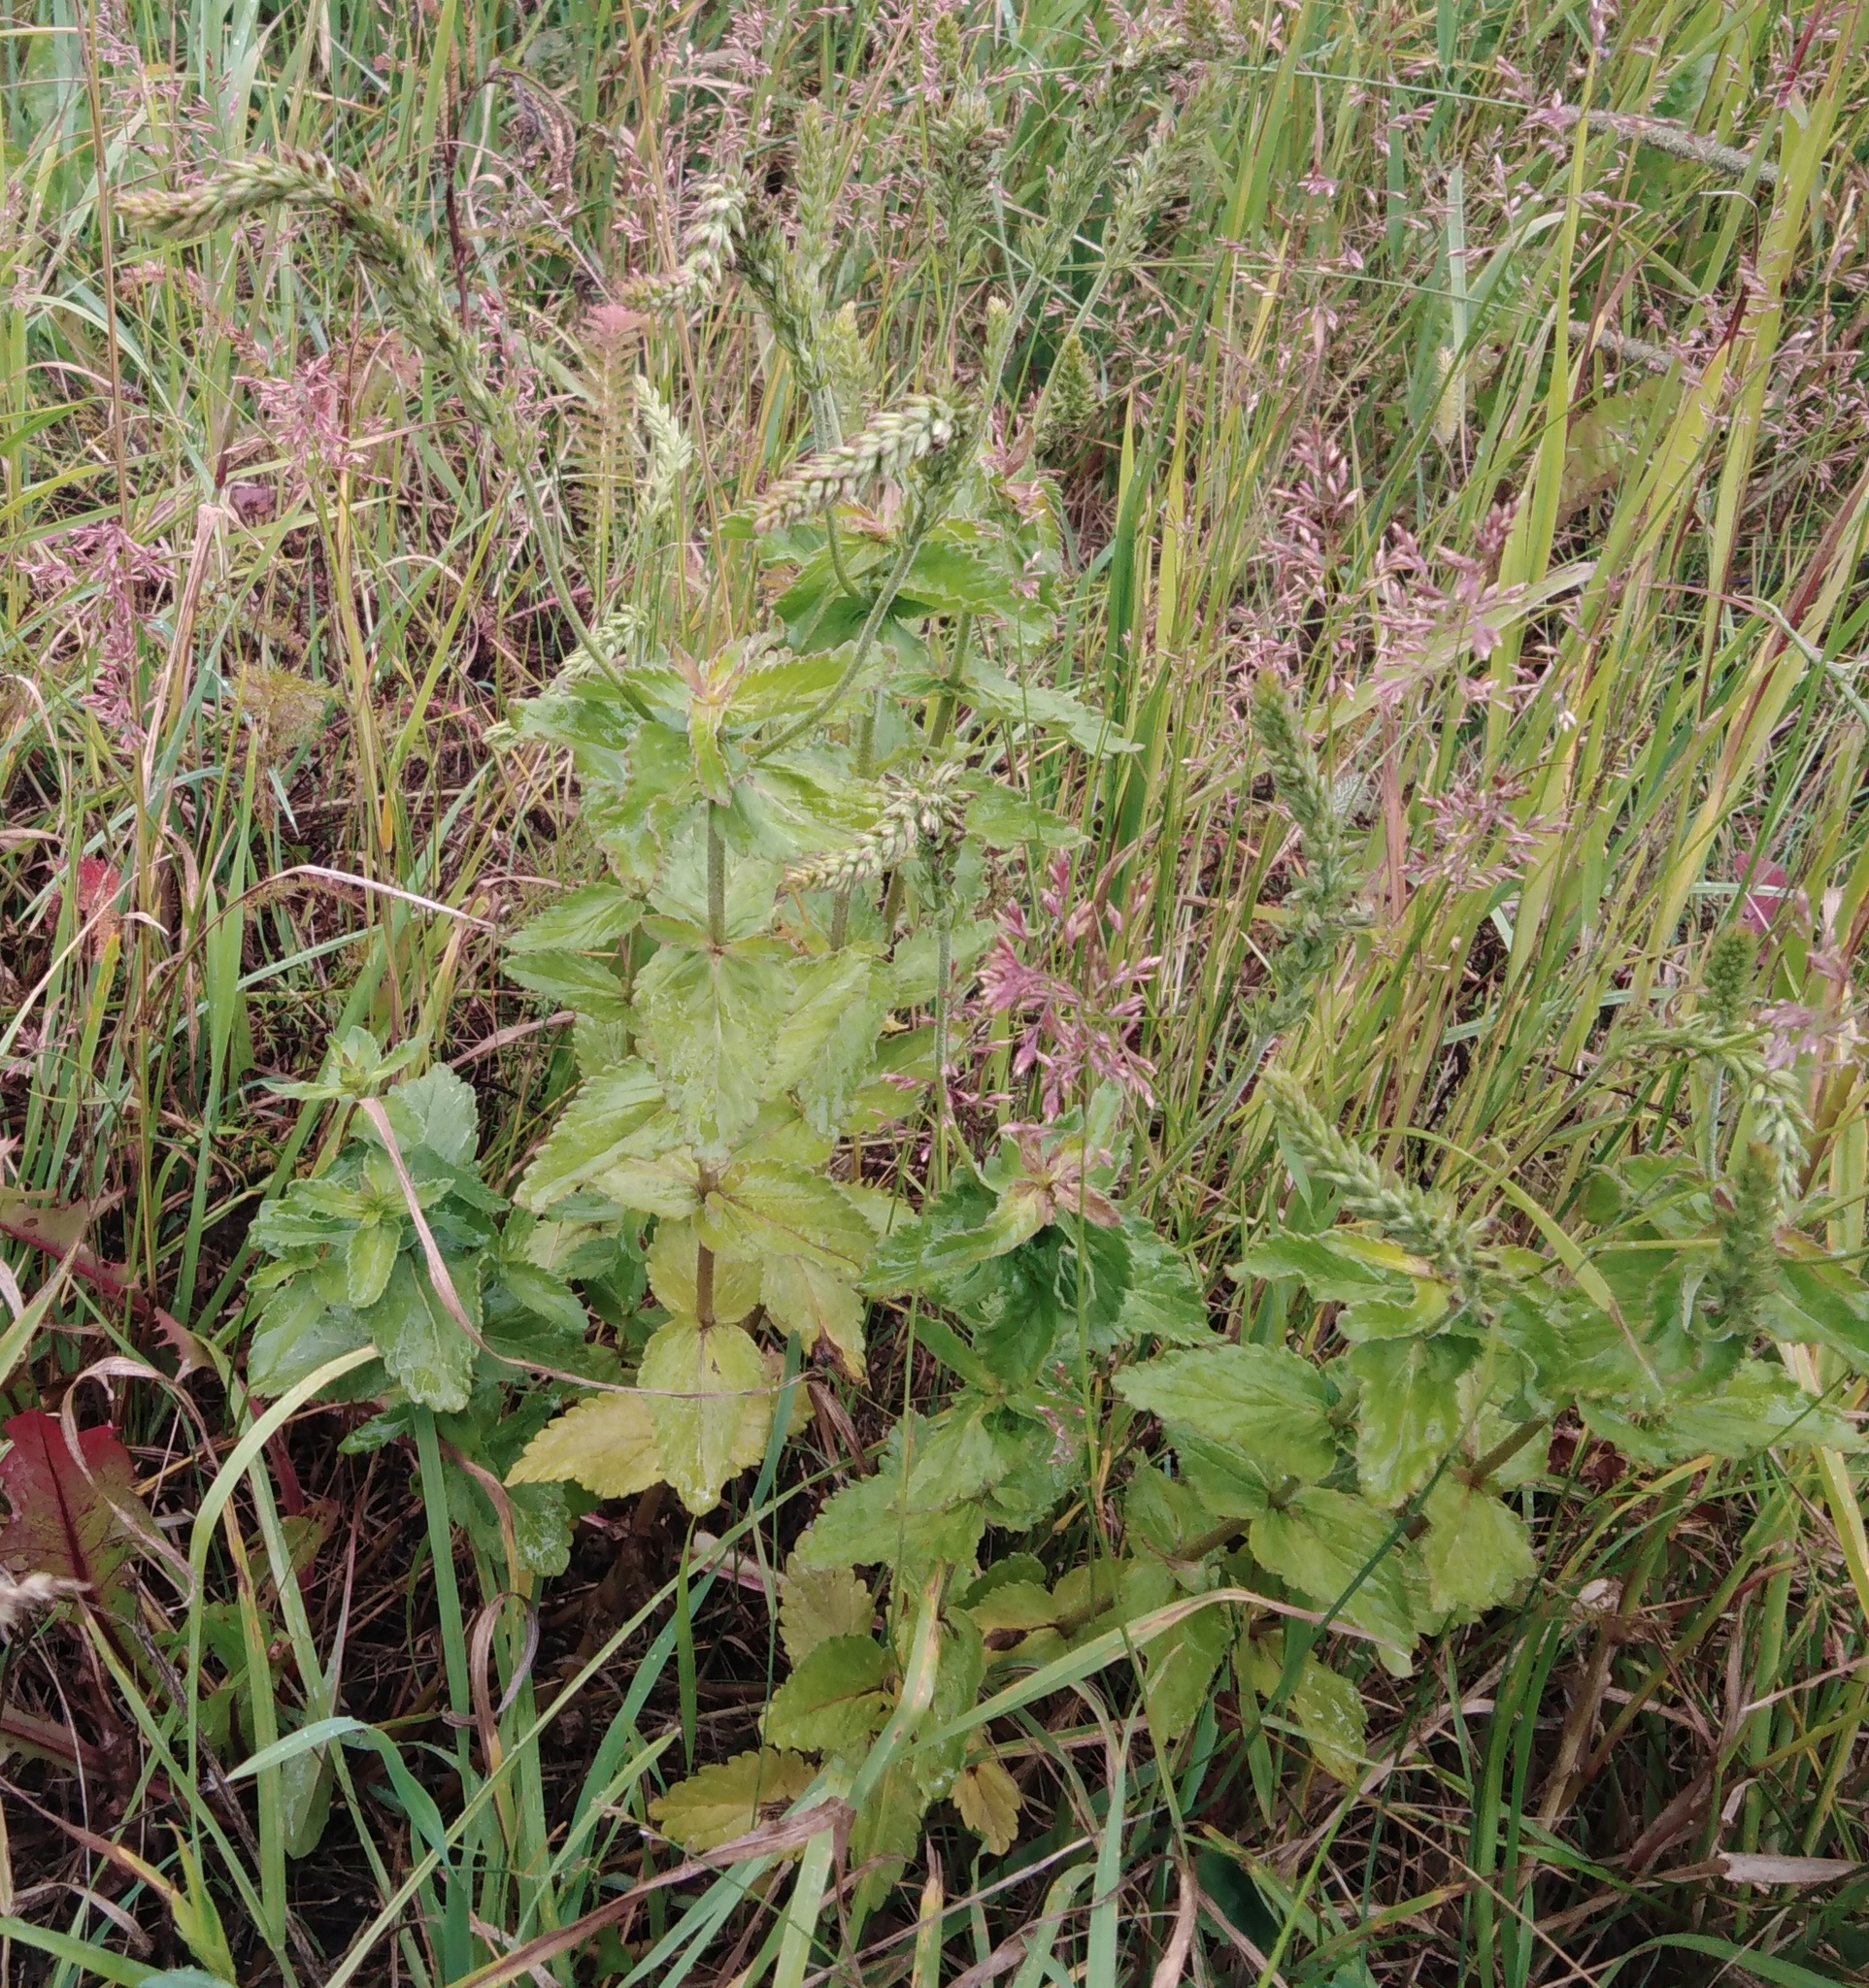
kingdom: Plantae
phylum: Tracheophyta
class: Magnoliopsida
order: Lamiales
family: Plantaginaceae
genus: Veronica
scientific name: Veronica teucrium
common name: Large speedwell
